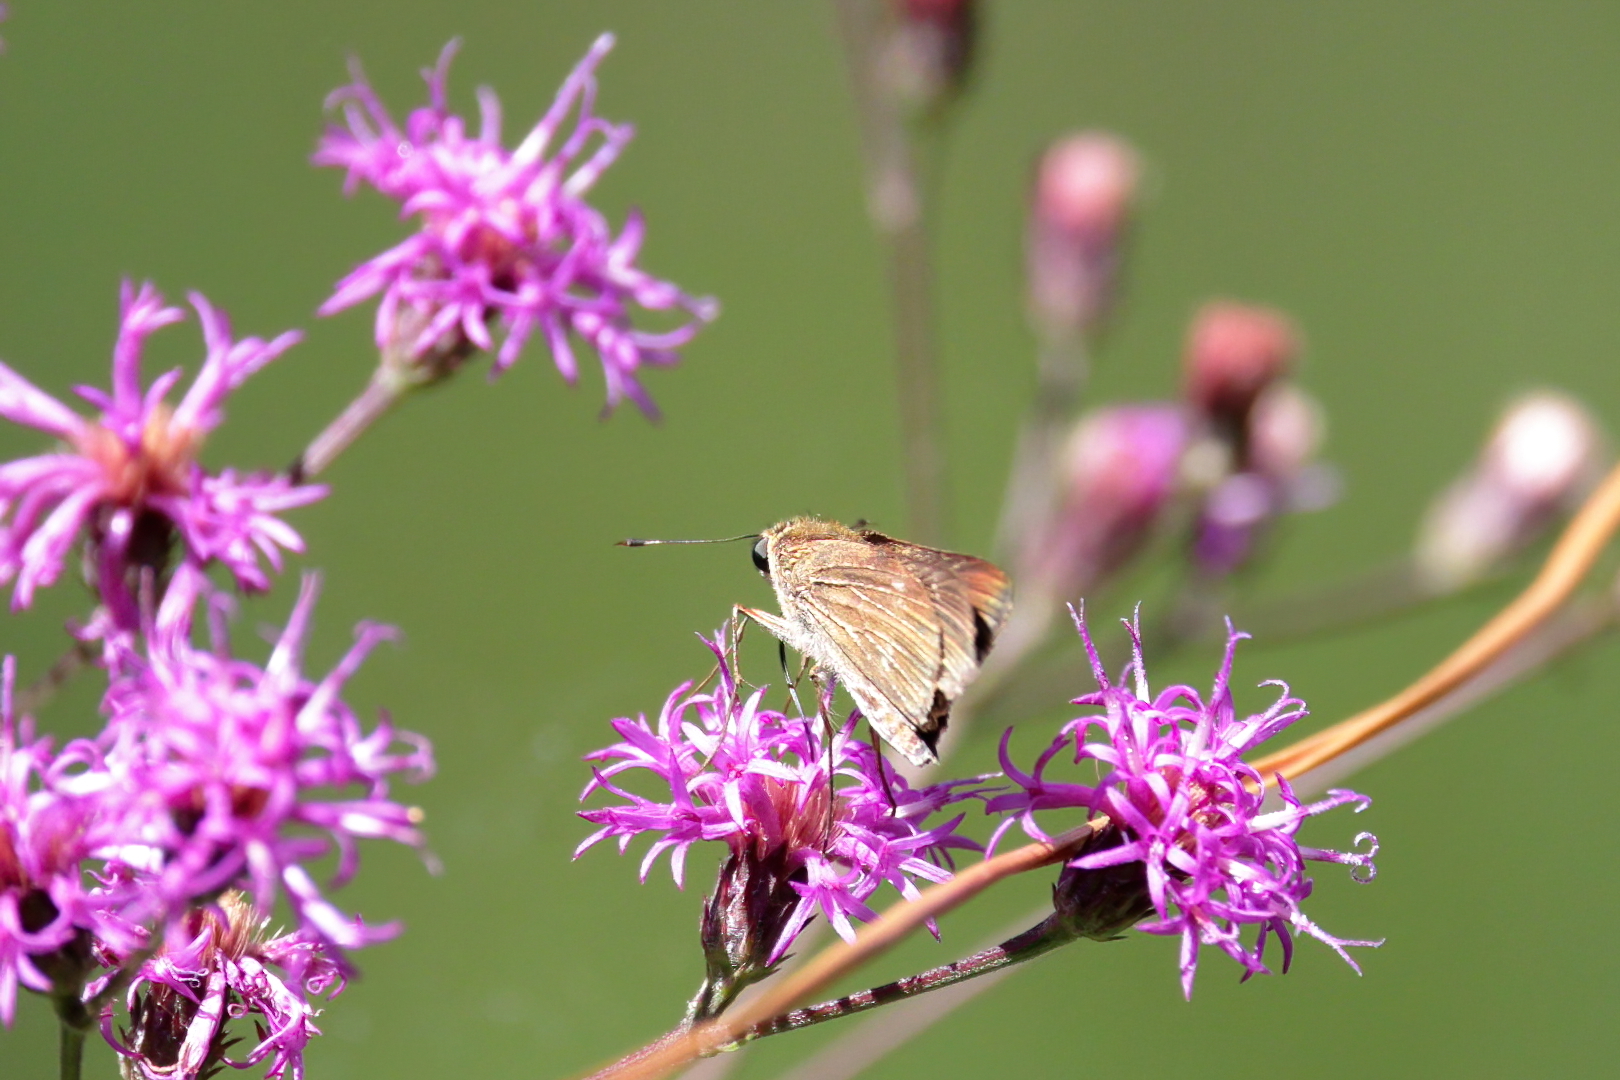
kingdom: Animalia
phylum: Arthropoda
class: Insecta
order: Lepidoptera
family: Hesperiidae
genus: Panoquina
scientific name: Panoquina ocola
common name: Ocola skipper
